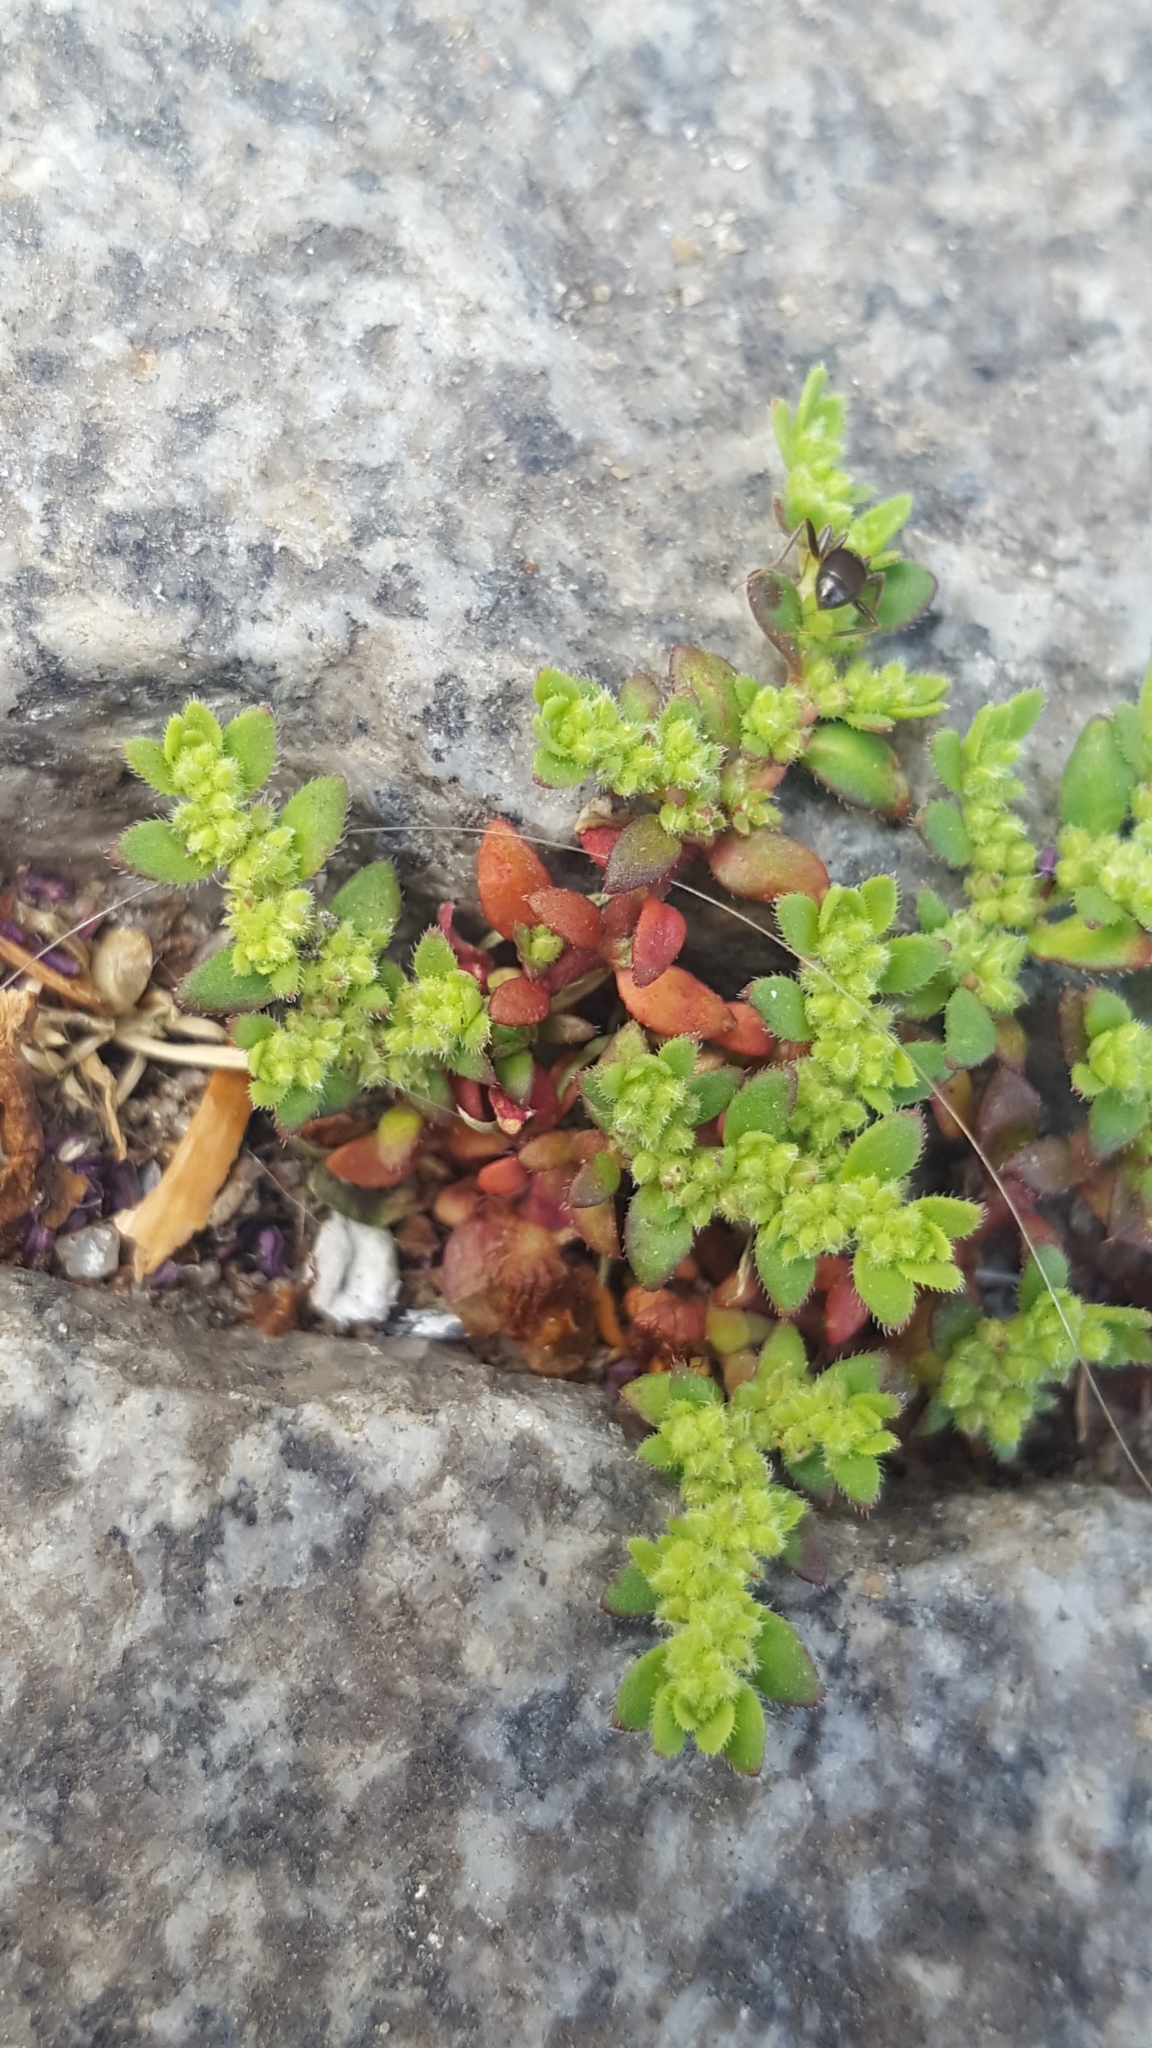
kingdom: Plantae
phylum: Tracheophyta
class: Magnoliopsida
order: Caryophyllales
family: Caryophyllaceae
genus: Herniaria
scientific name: Herniaria hirsuta
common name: Hairy rupturewort
